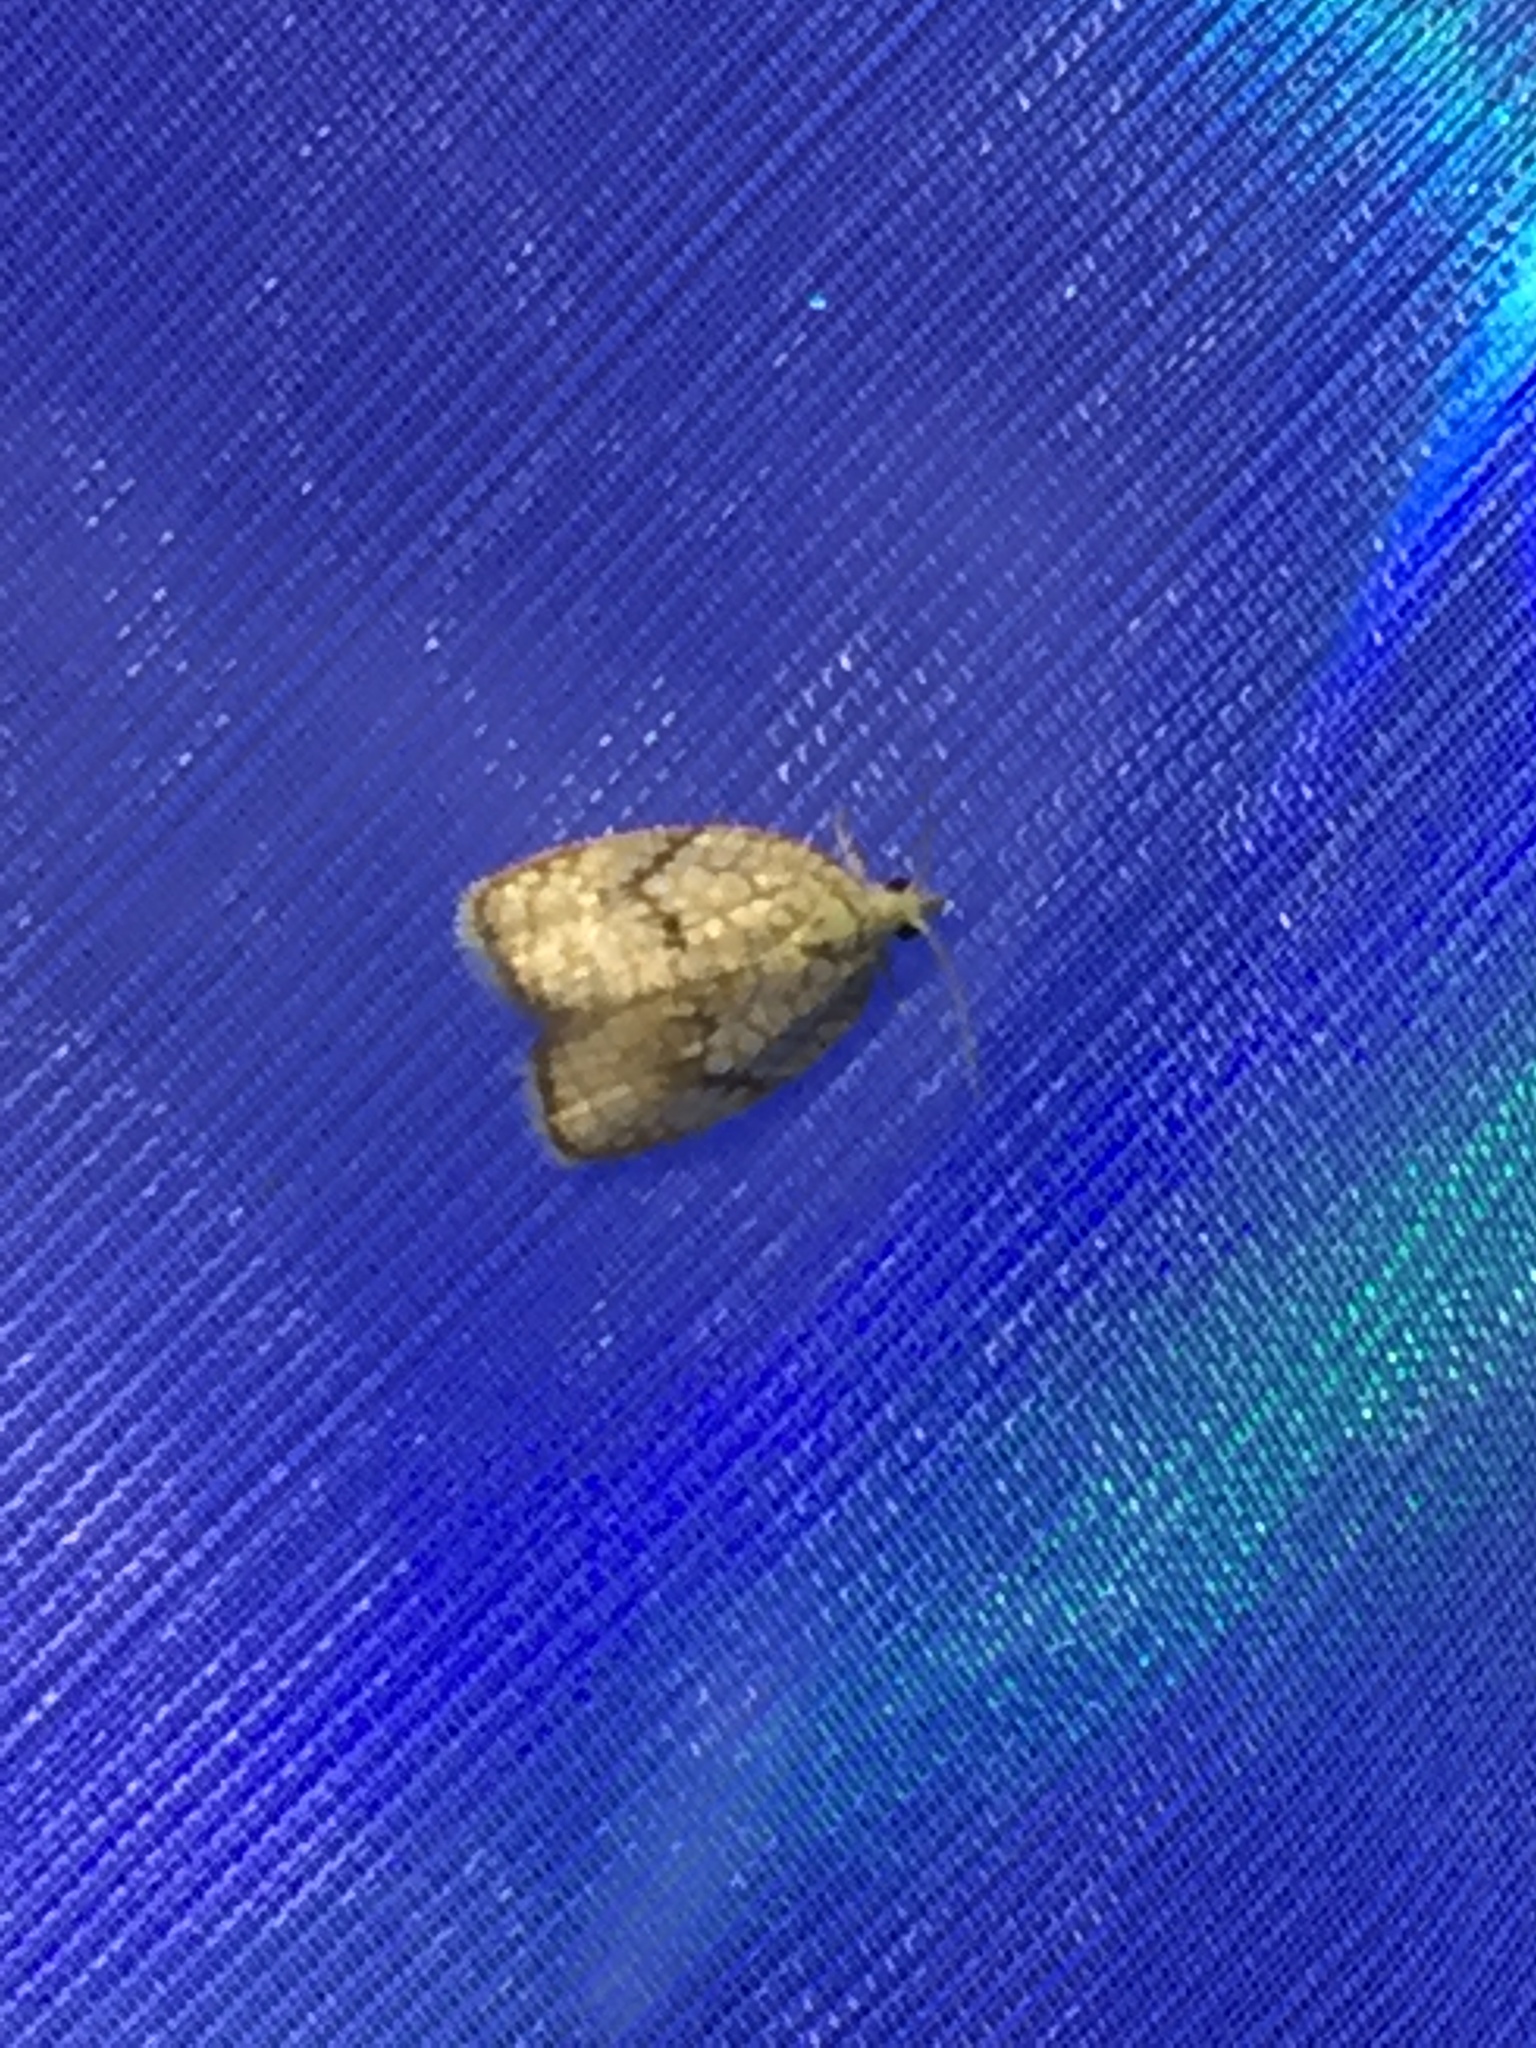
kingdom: Animalia
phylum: Arthropoda
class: Insecta
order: Lepidoptera
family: Tortricidae
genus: Acleris
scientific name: Acleris forsskaleana
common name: Maple button
